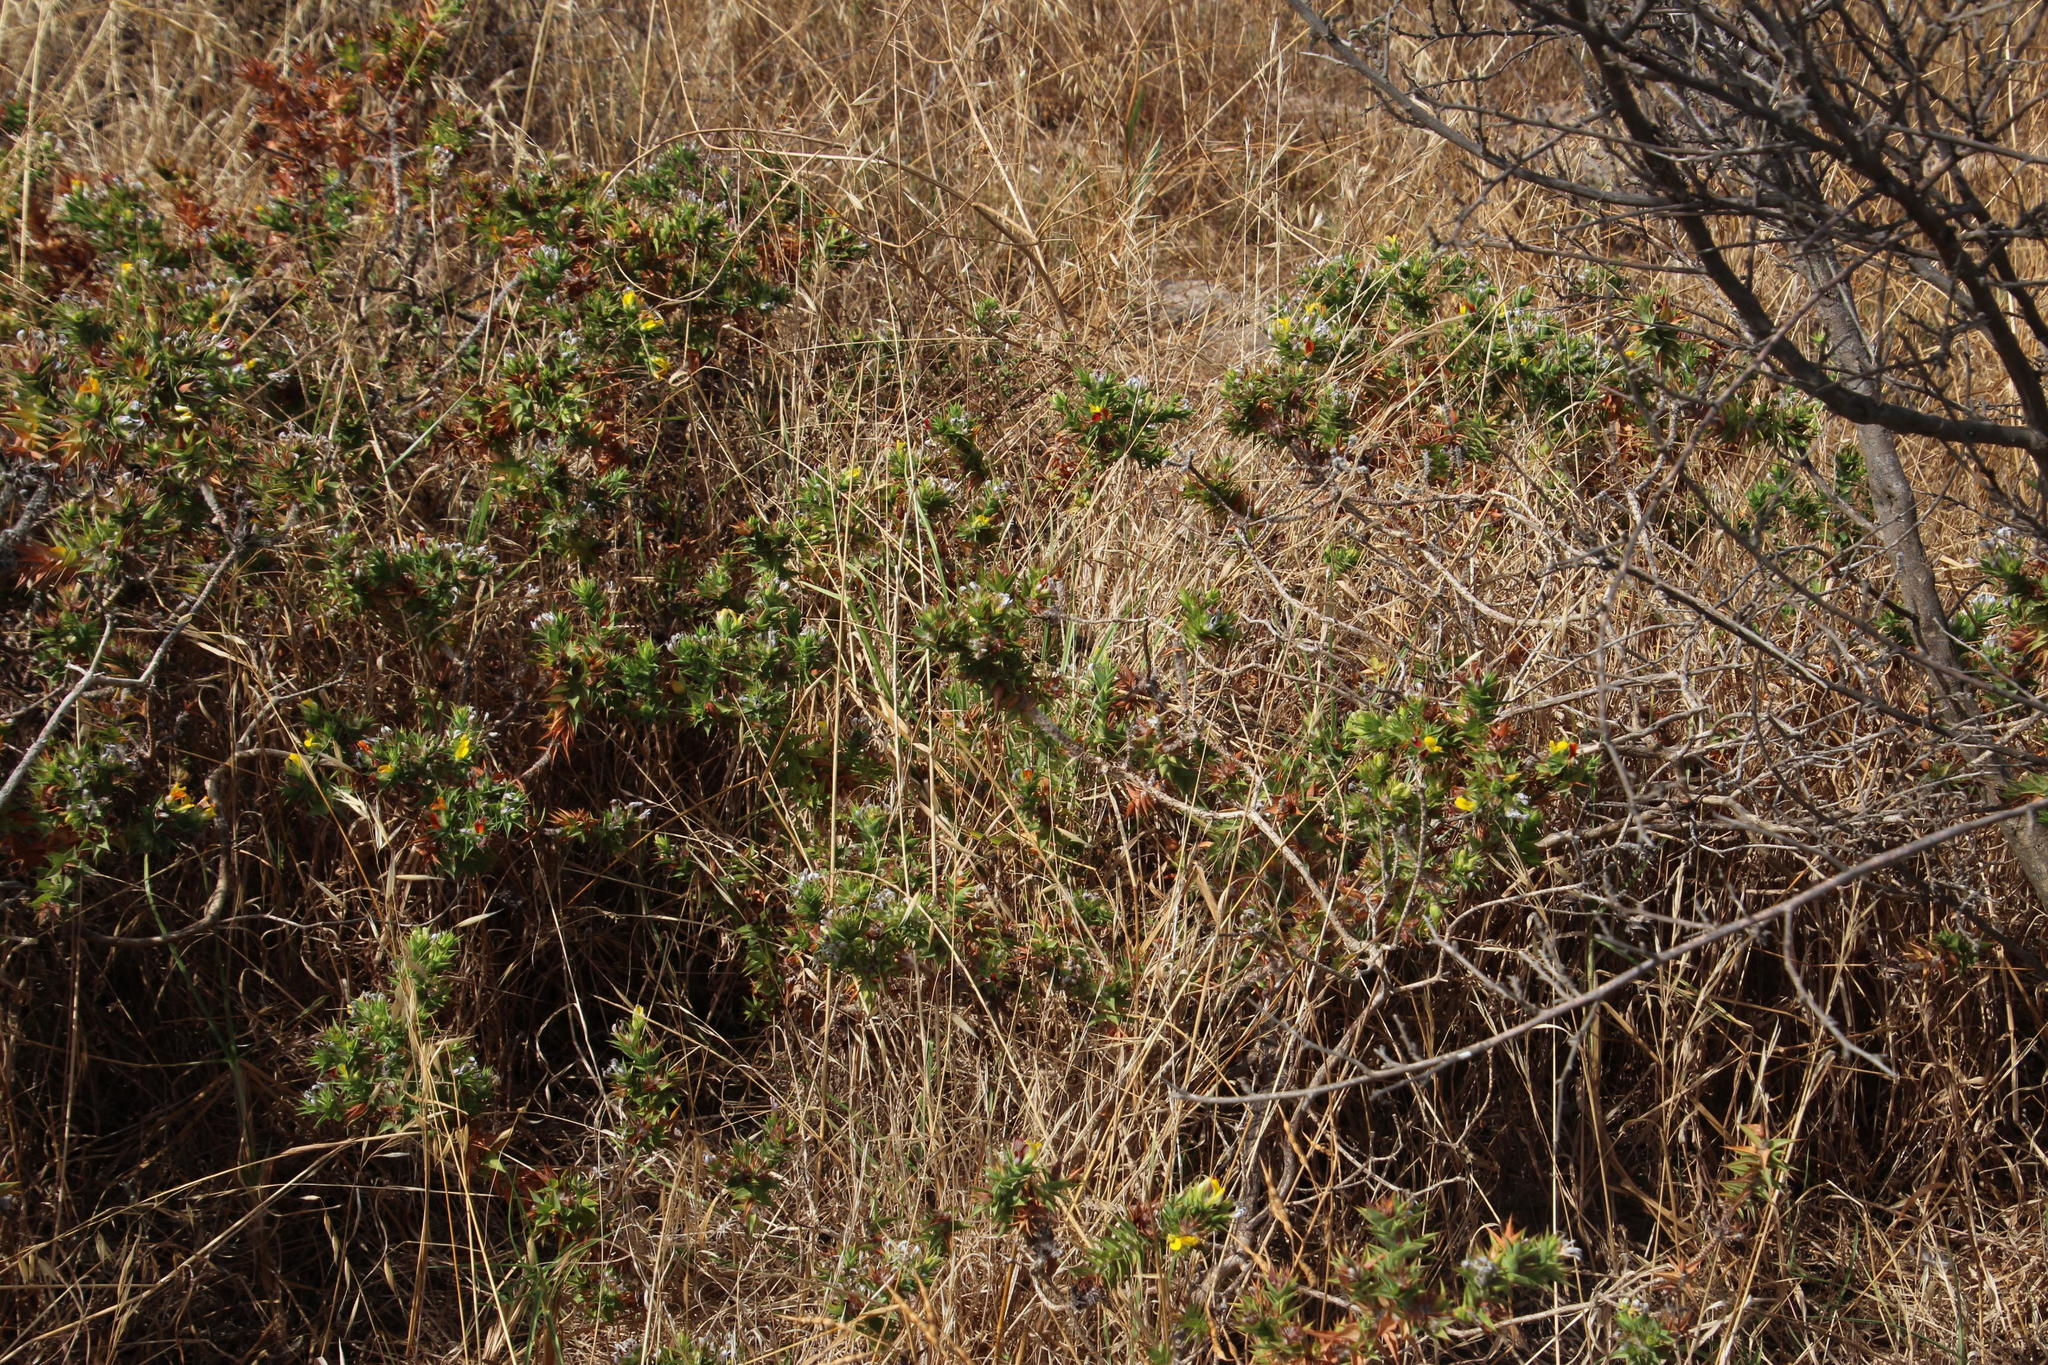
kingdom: Plantae
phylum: Tracheophyta
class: Magnoliopsida
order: Fabales
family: Fabaceae
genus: Aspalathus
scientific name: Aspalathus cordata
